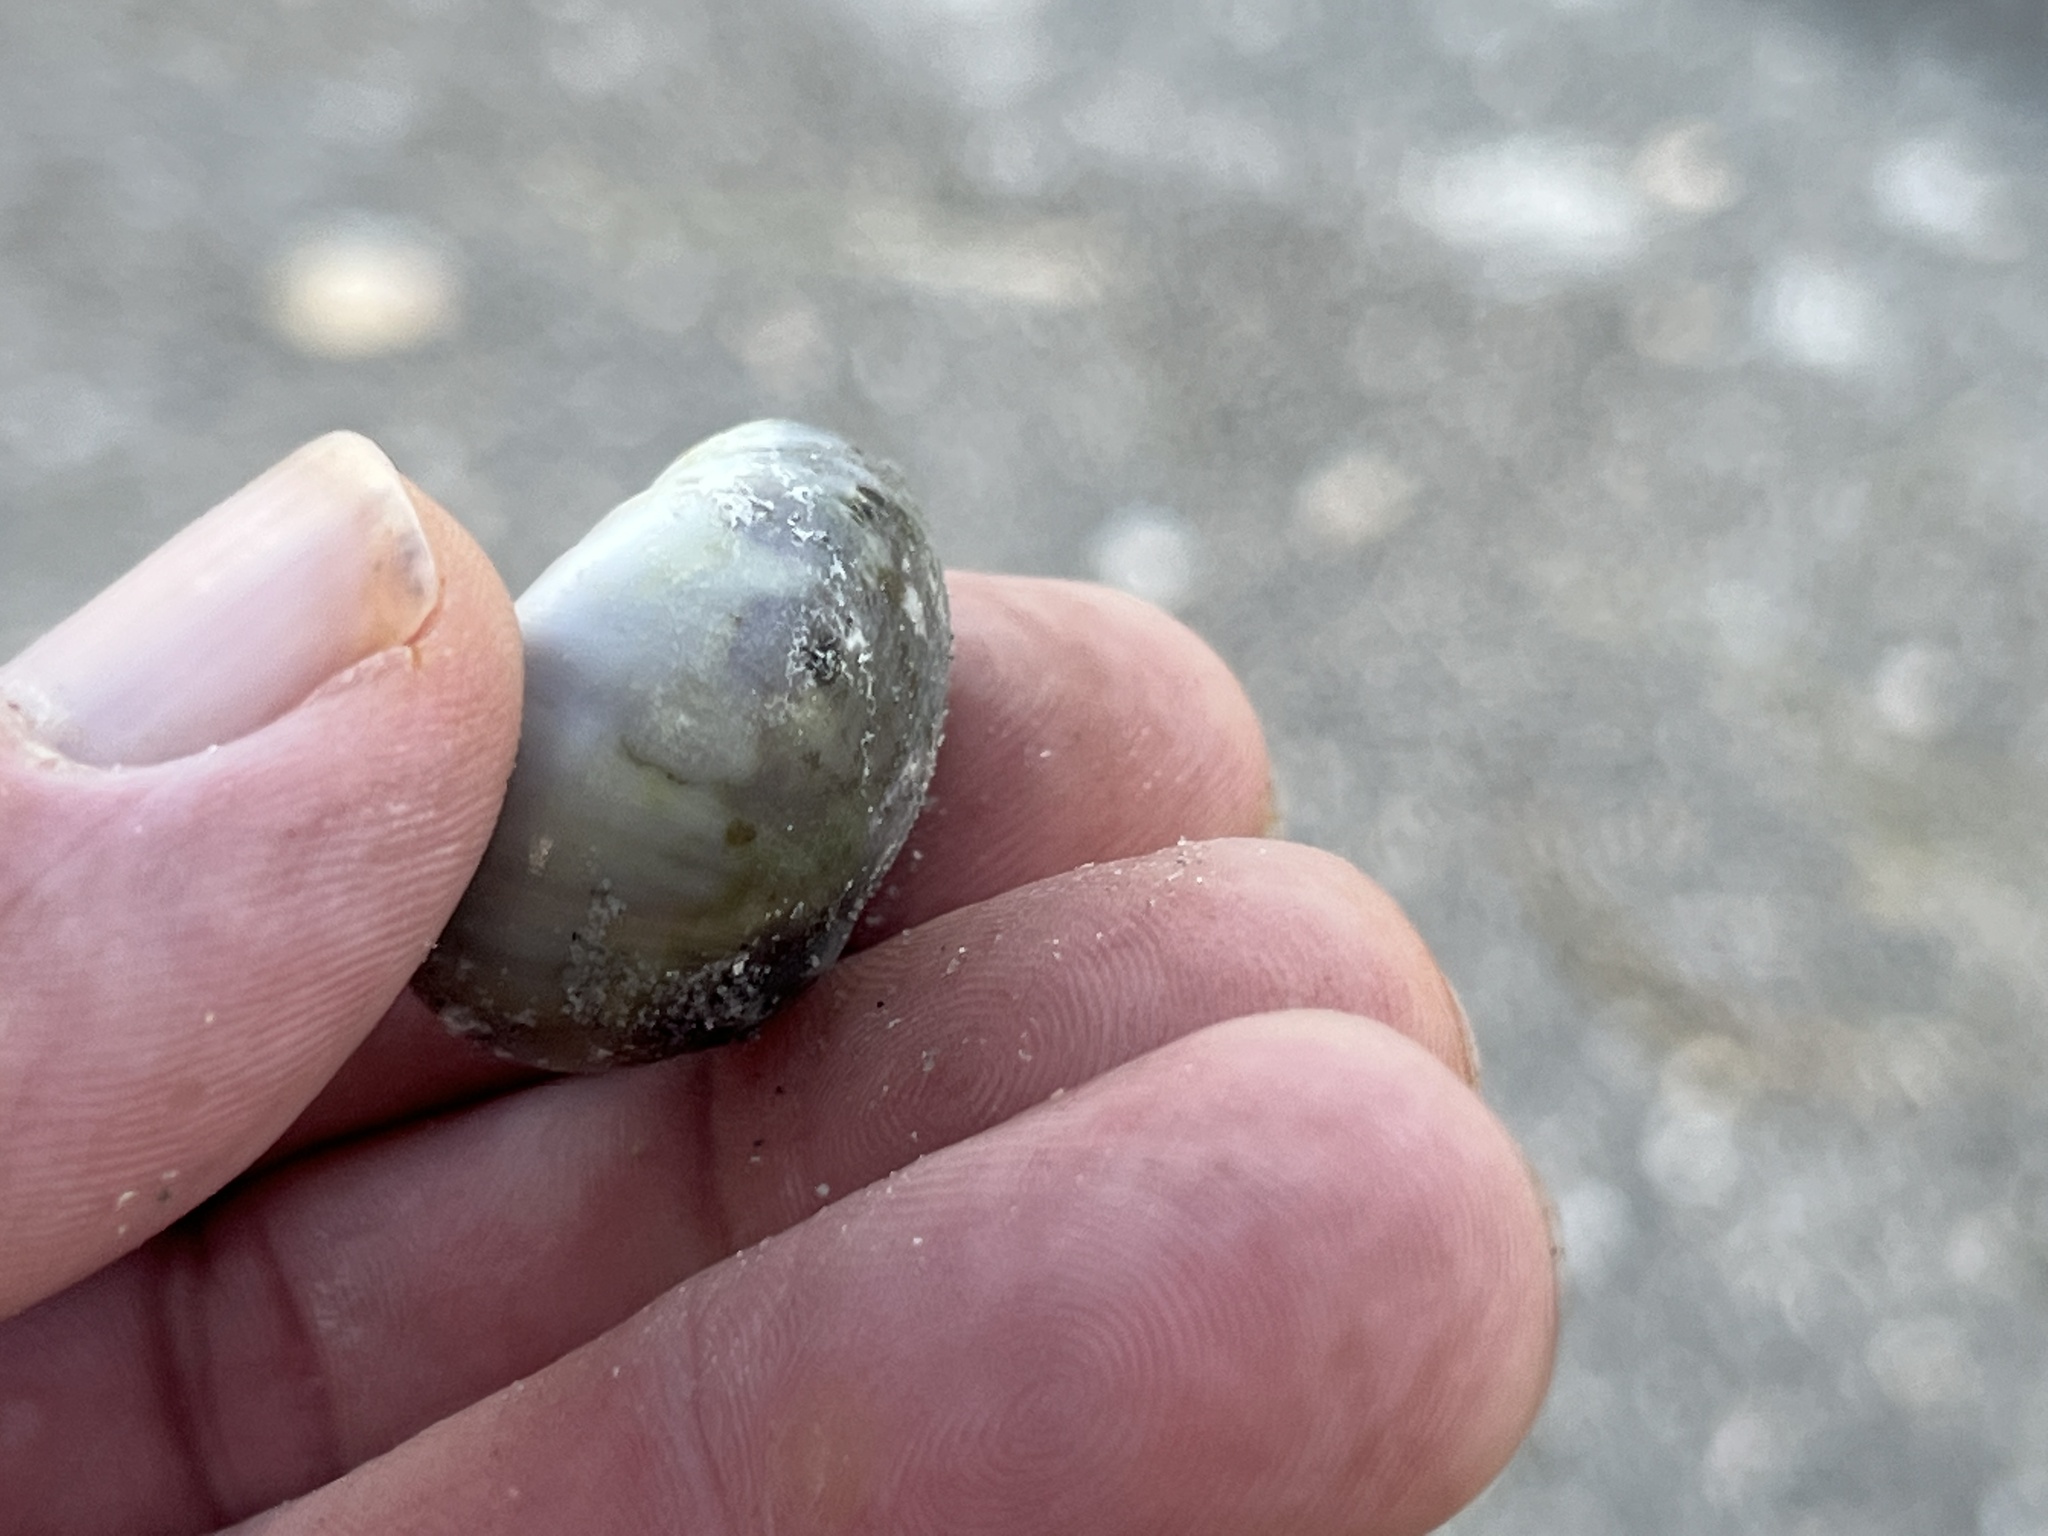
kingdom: Animalia
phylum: Mollusca
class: Gastropoda
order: Littorinimorpha
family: Naticidae
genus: Neverita
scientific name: Neverita delessertiana
